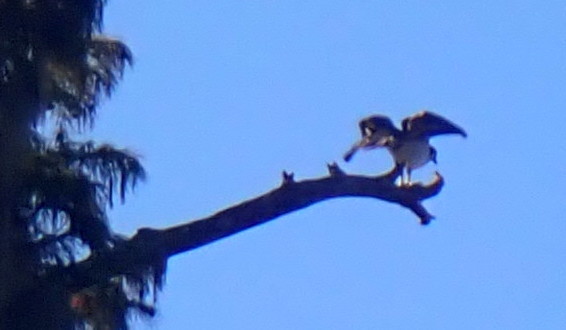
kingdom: Animalia
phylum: Chordata
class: Aves
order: Accipitriformes
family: Pandionidae
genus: Pandion
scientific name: Pandion haliaetus
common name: Osprey
